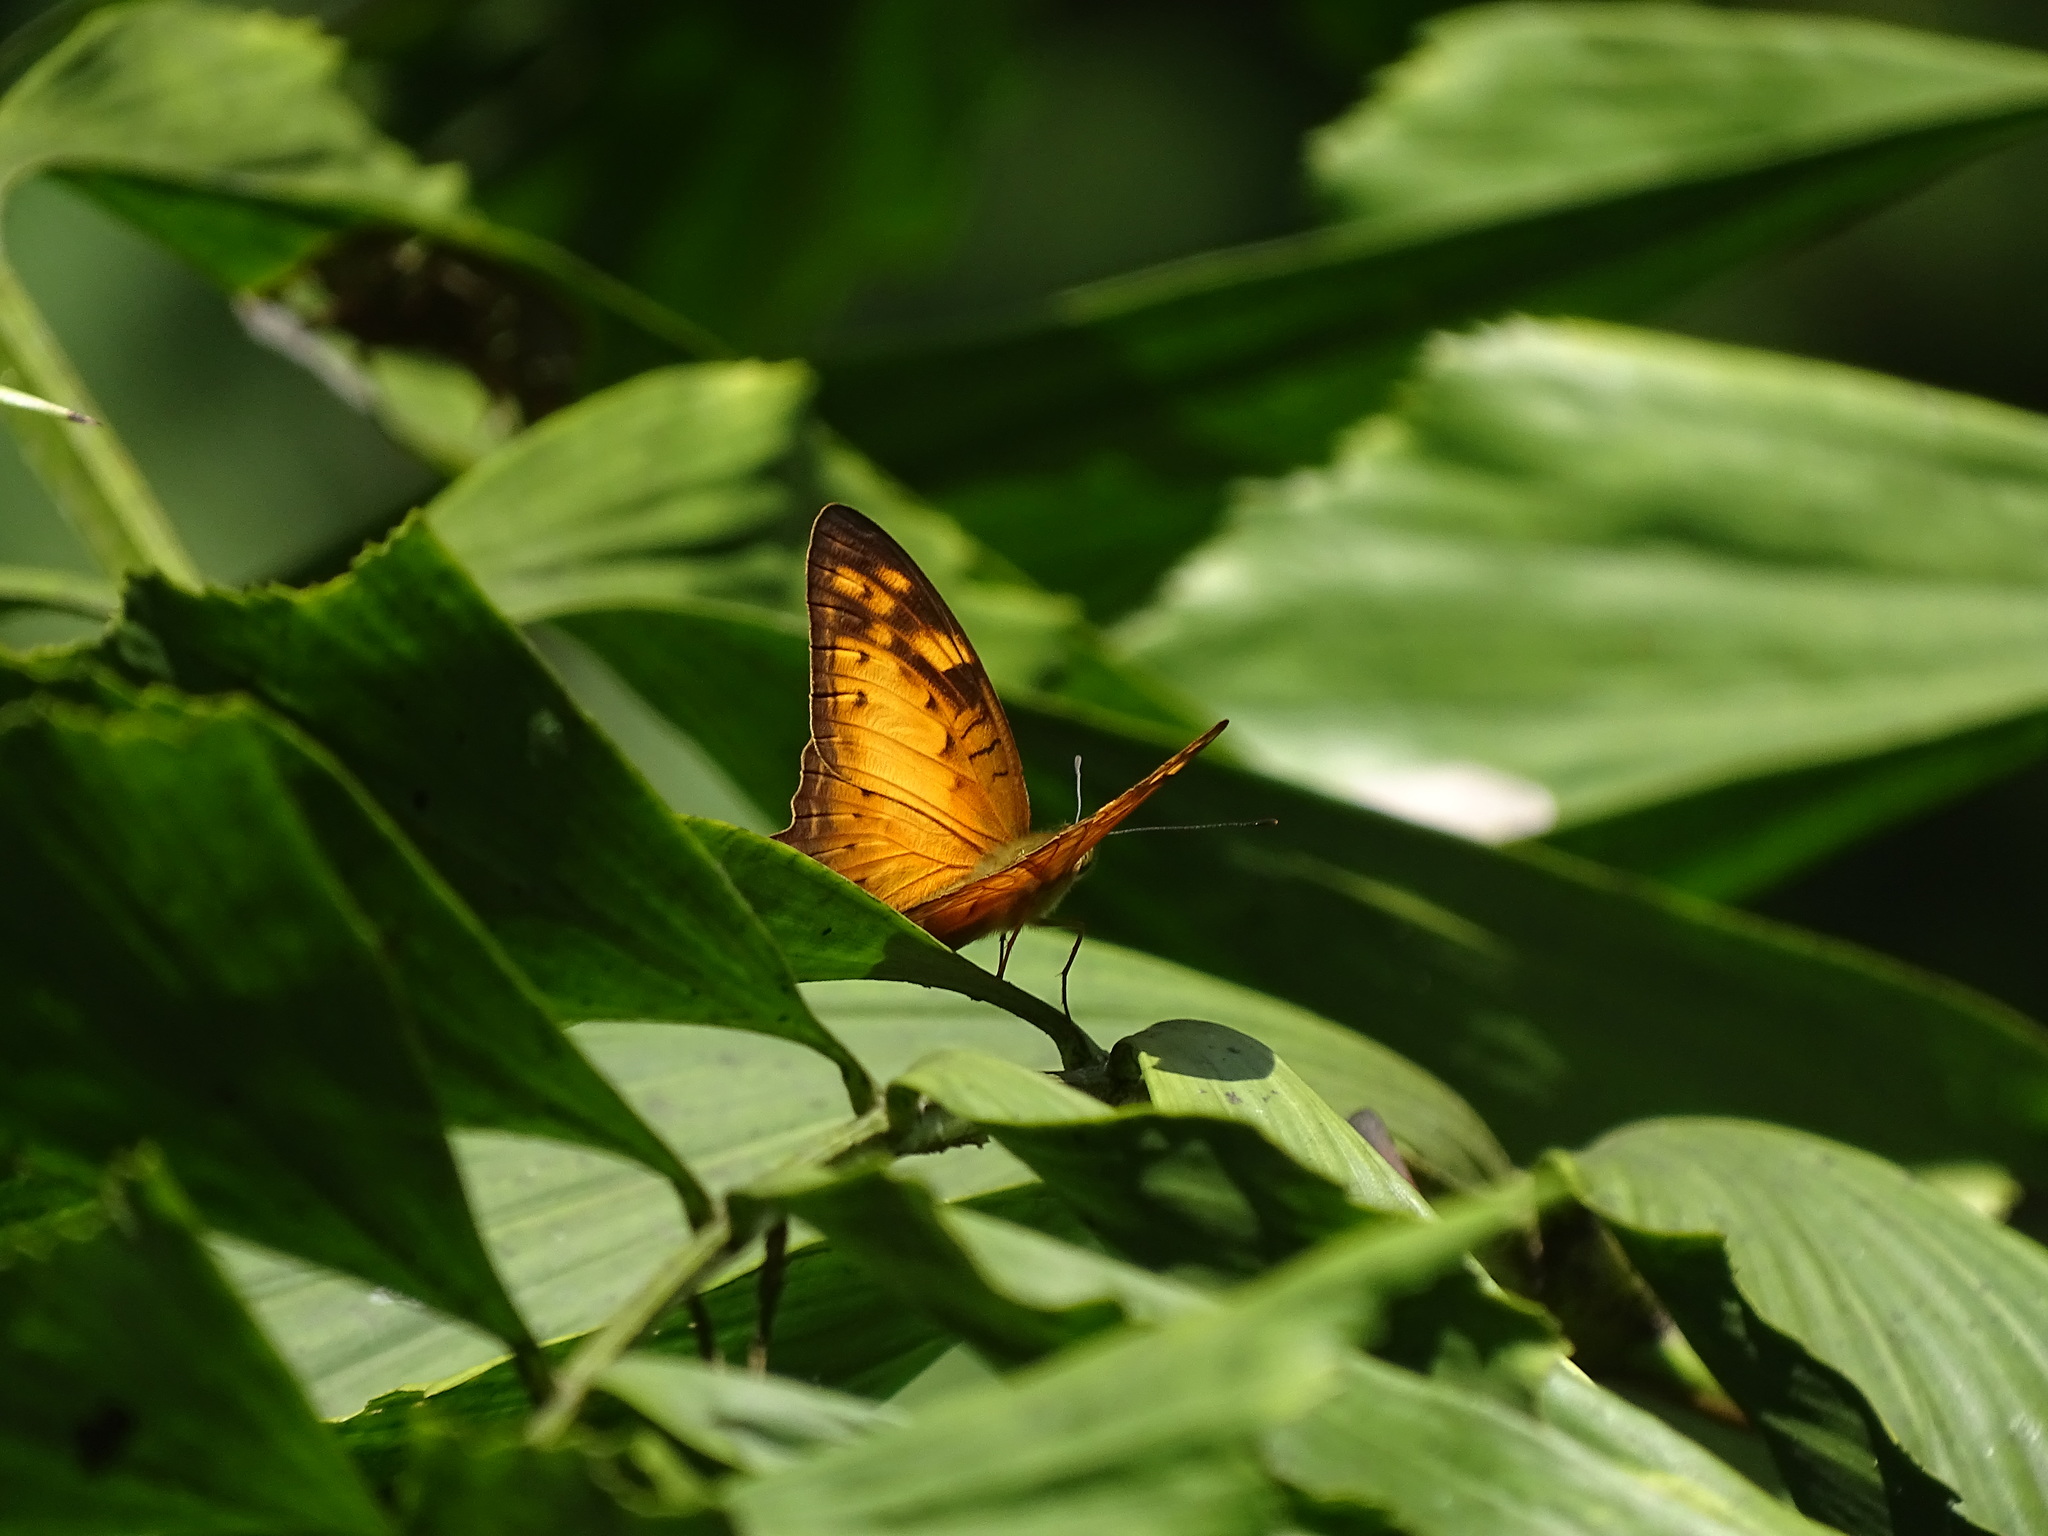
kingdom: Animalia
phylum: Arthropoda
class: Insecta
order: Lepidoptera
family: Nymphalidae
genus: Vagrans
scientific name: Vagrans egista
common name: Tailed rustic
